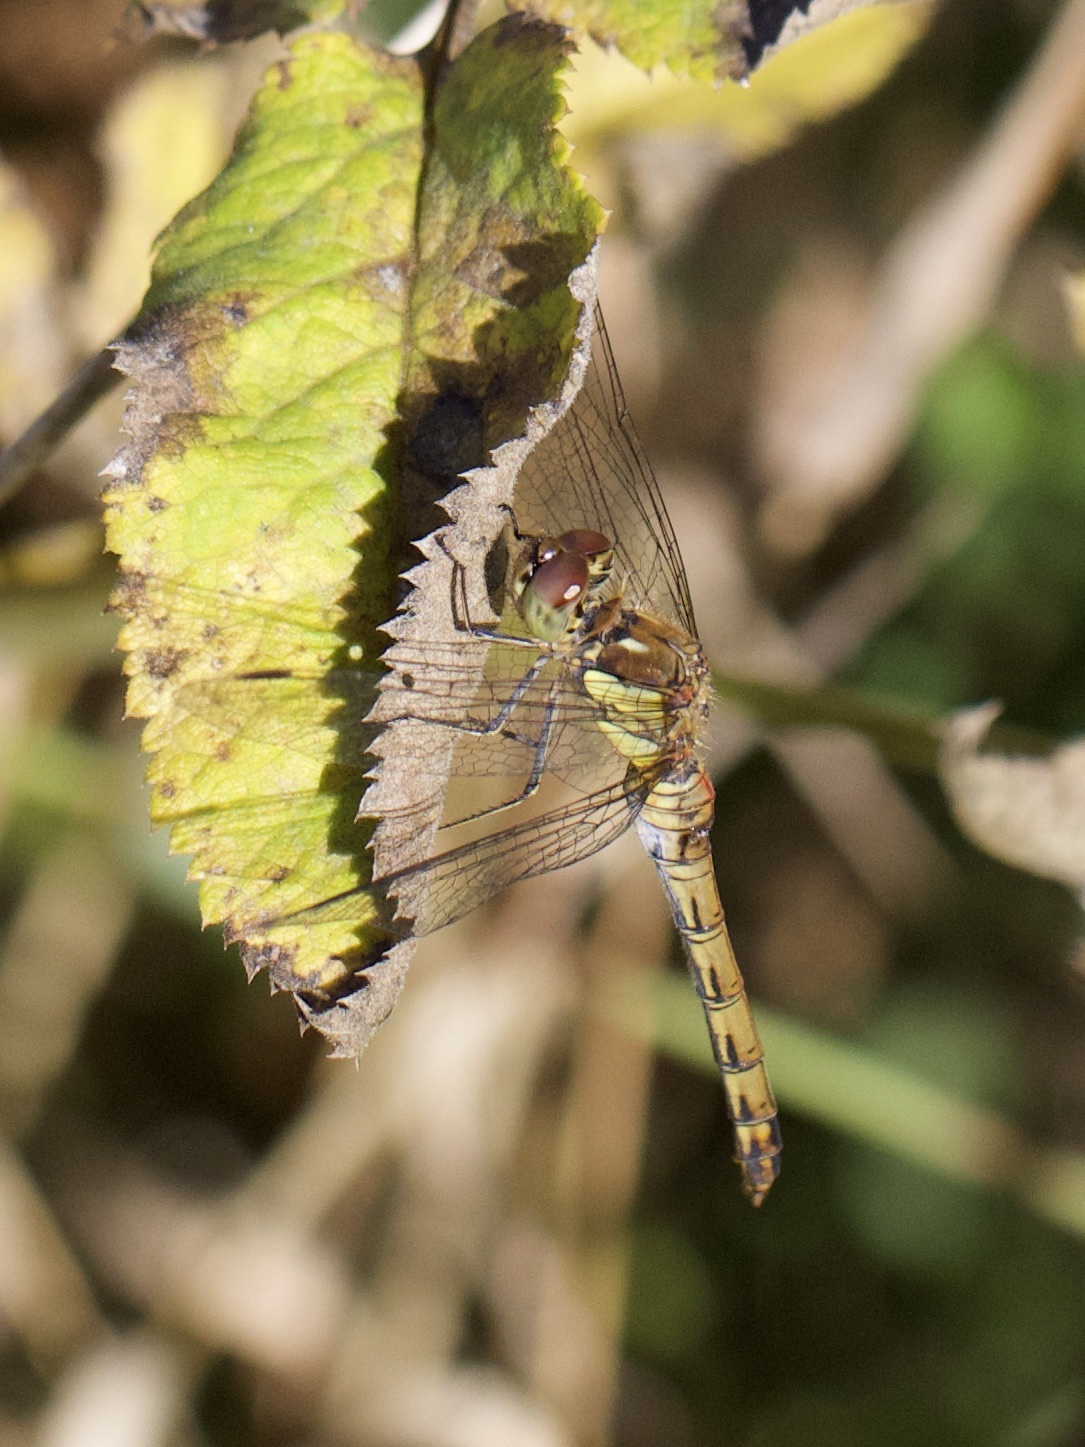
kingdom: Animalia
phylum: Arthropoda
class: Insecta
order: Odonata
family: Libellulidae
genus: Sympetrum
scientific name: Sympetrum striolatum
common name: Common darter
